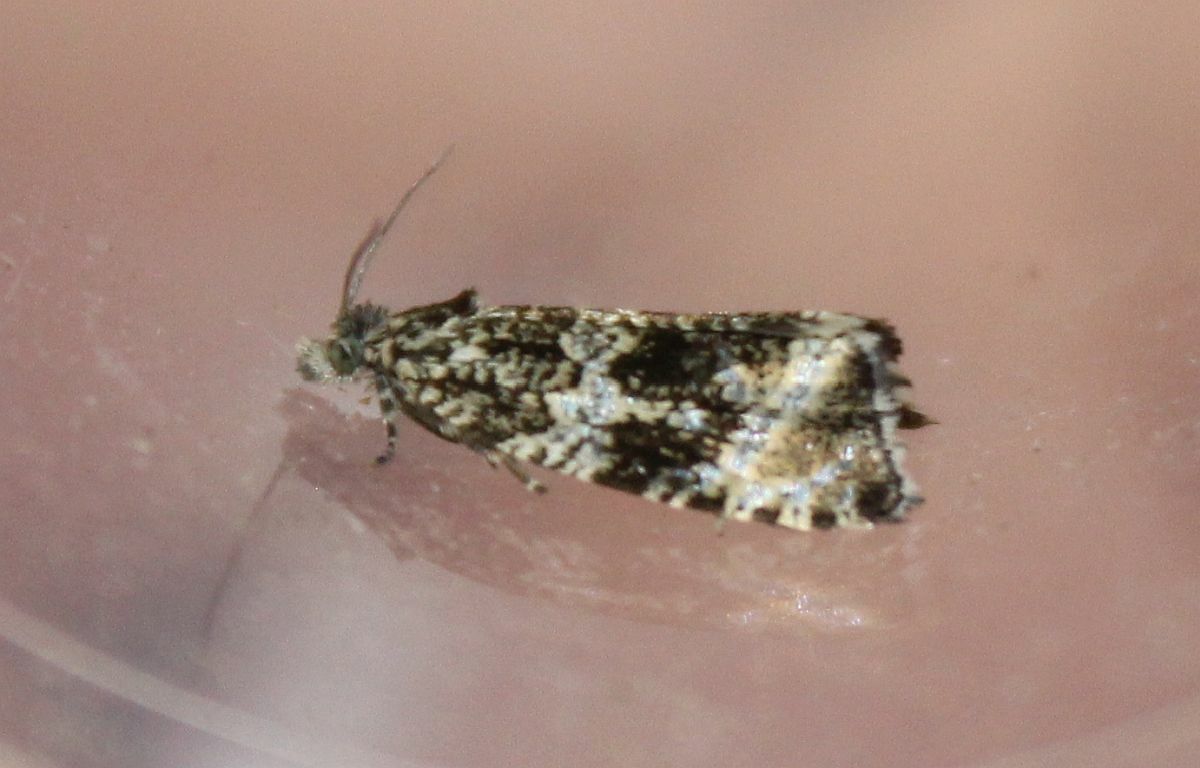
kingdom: Animalia
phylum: Arthropoda
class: Insecta
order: Lepidoptera
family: Tortricidae
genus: Syricoris
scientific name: Syricoris lacunana
